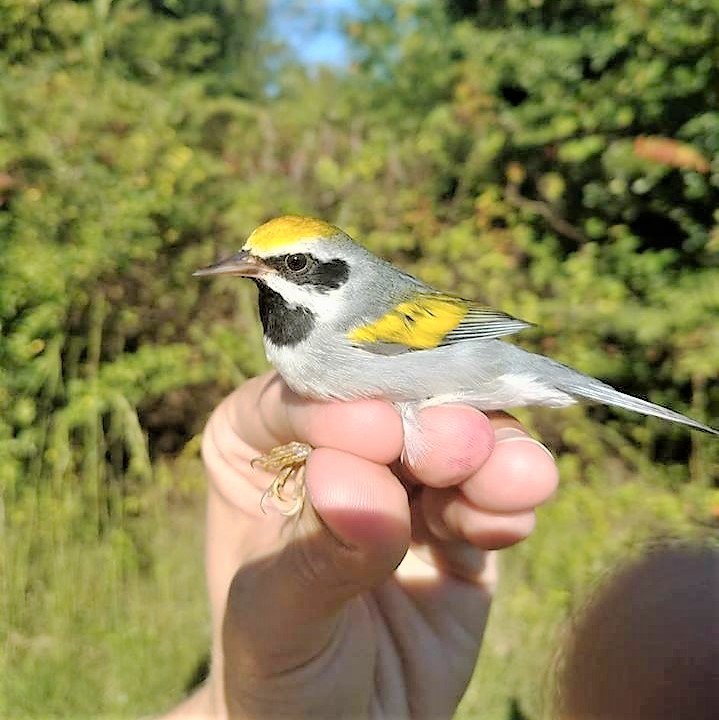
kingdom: Animalia
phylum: Chordata
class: Aves
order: Passeriformes
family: Parulidae
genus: Vermivora
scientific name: Vermivora chrysoptera
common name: Golden-winged warbler
